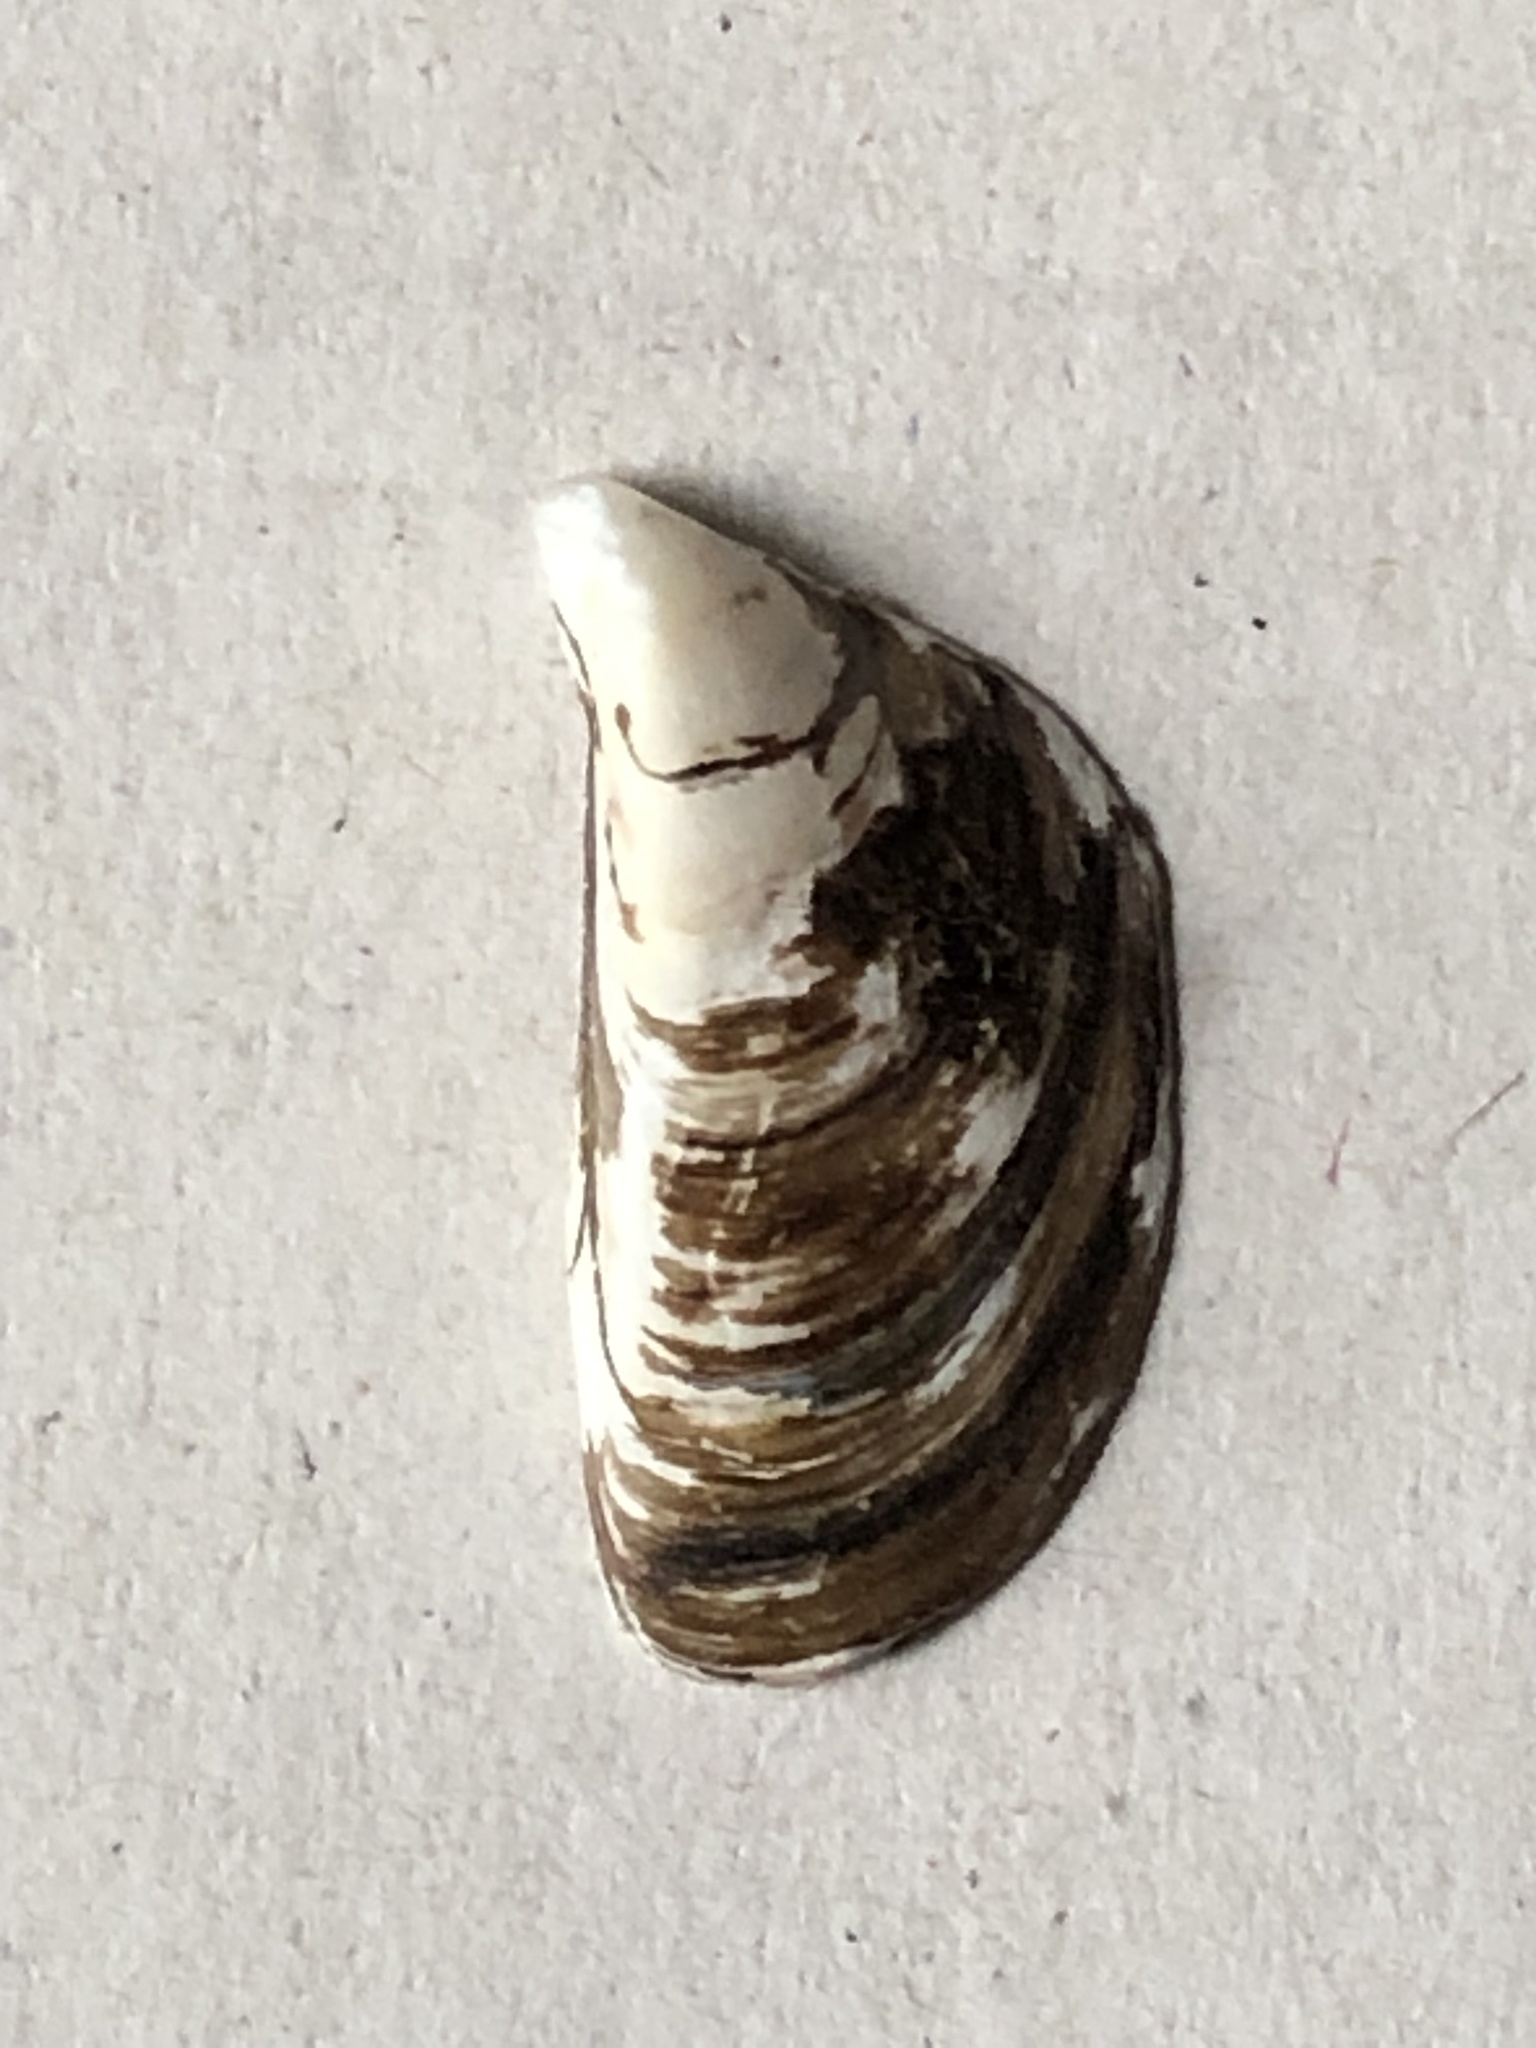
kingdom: Animalia
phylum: Mollusca
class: Bivalvia
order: Myida
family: Dreissenidae
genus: Dreissena
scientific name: Dreissena polymorpha
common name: Zebra mussel
